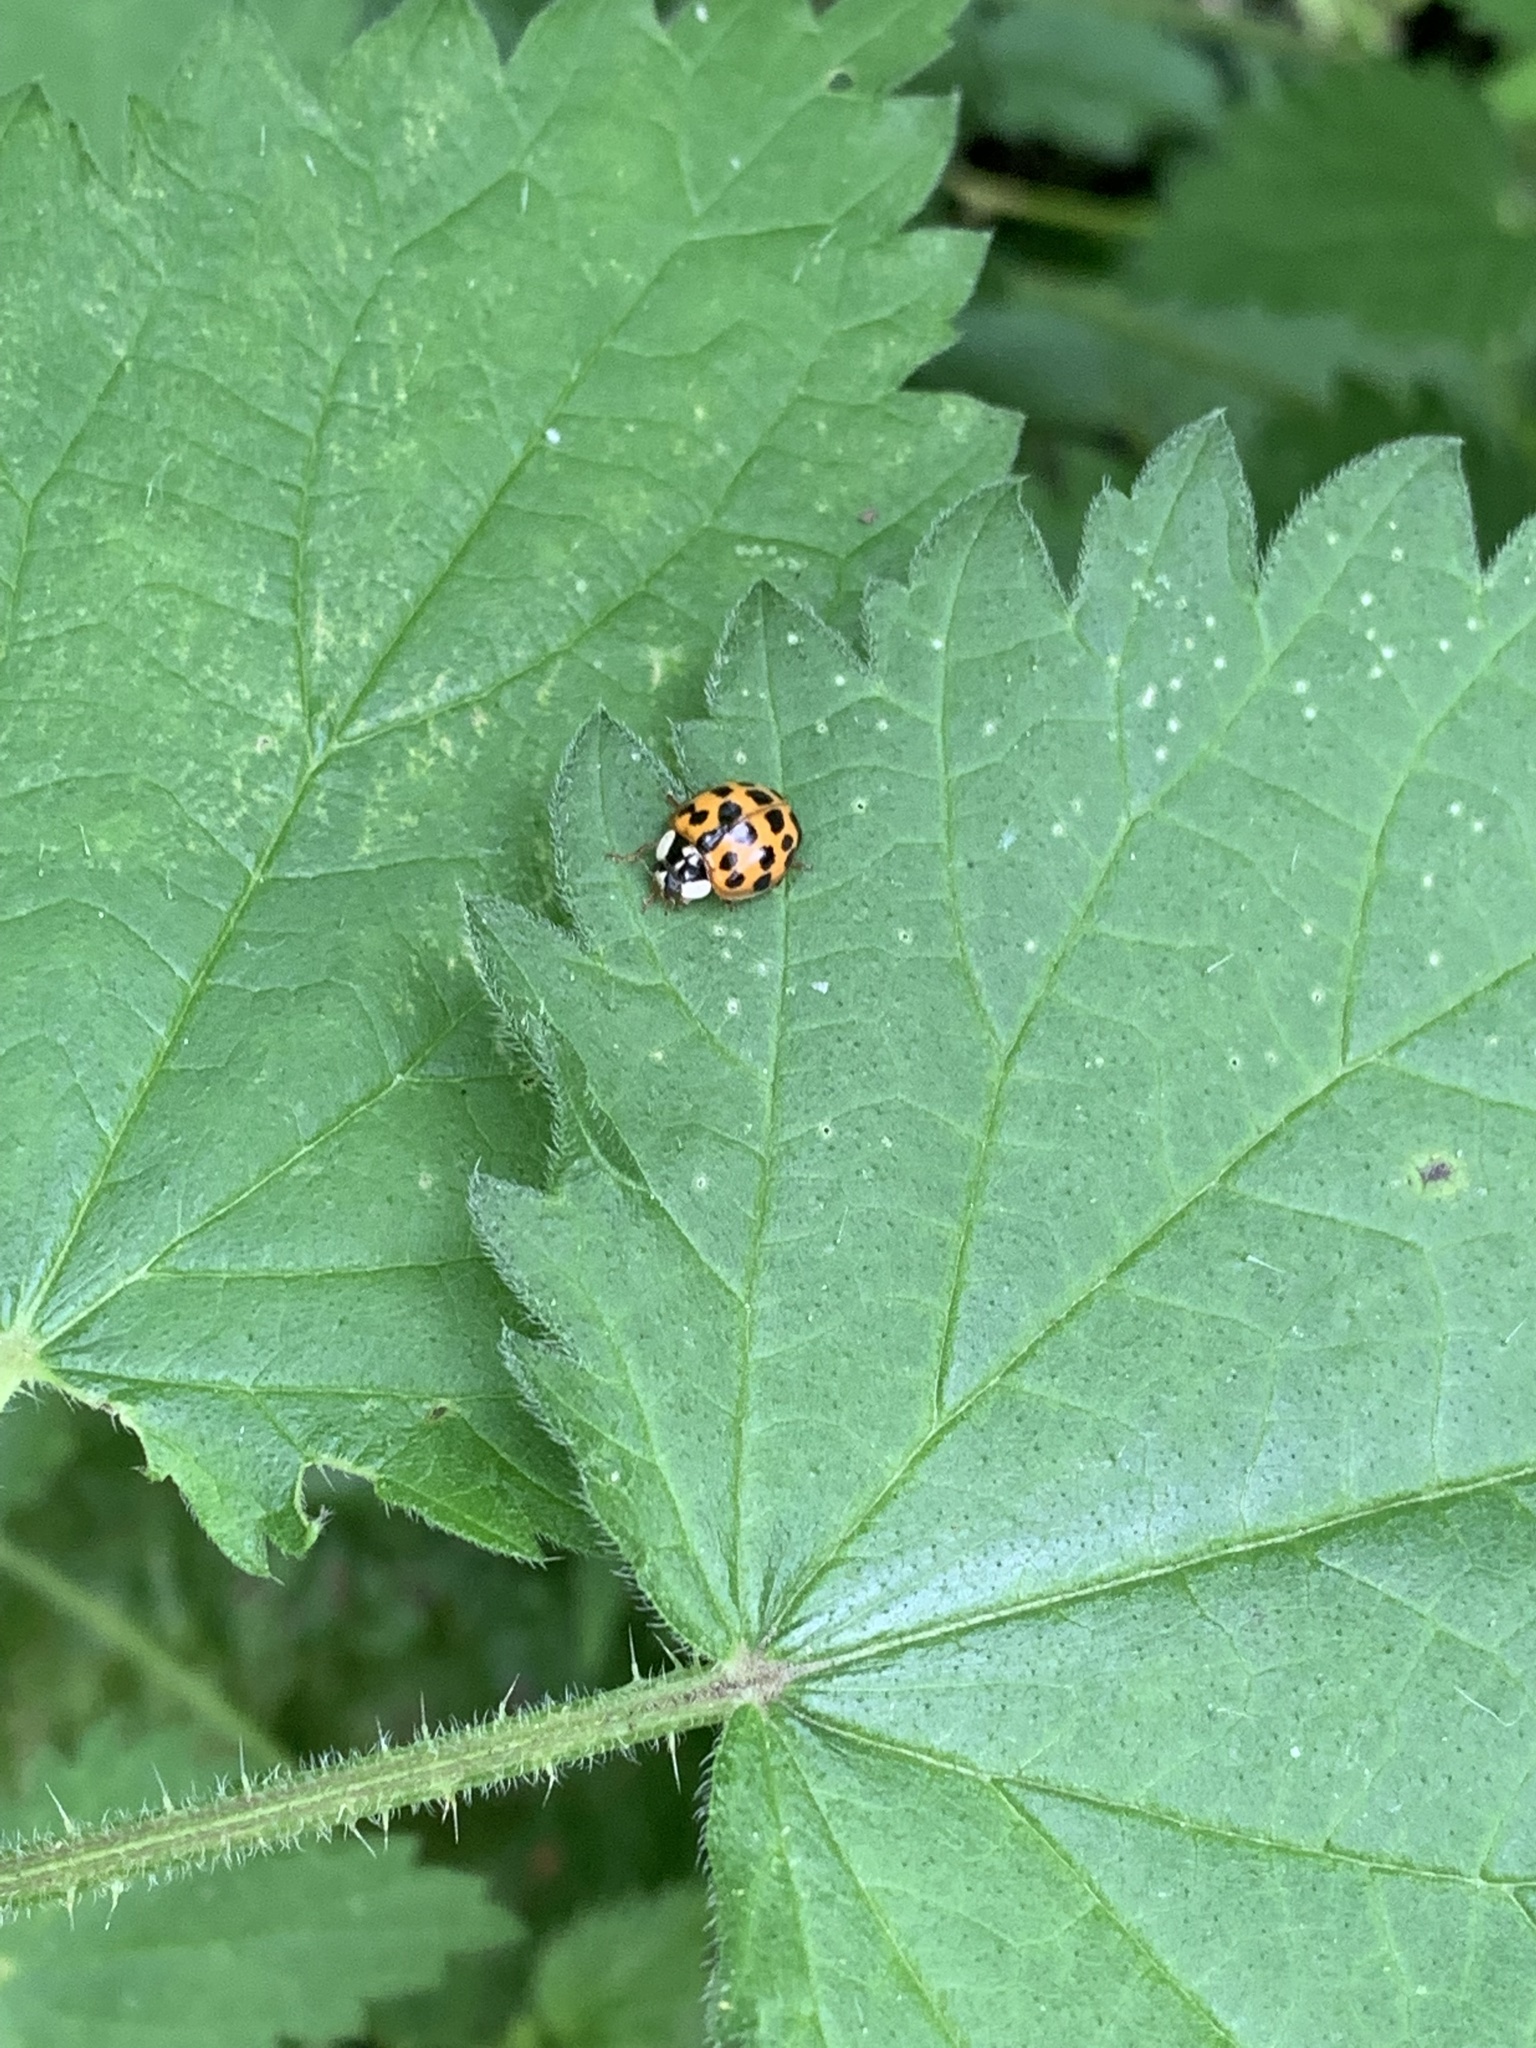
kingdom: Animalia
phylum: Arthropoda
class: Insecta
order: Coleoptera
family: Coccinellidae
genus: Harmonia
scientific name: Harmonia axyridis
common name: Harlequin ladybird
